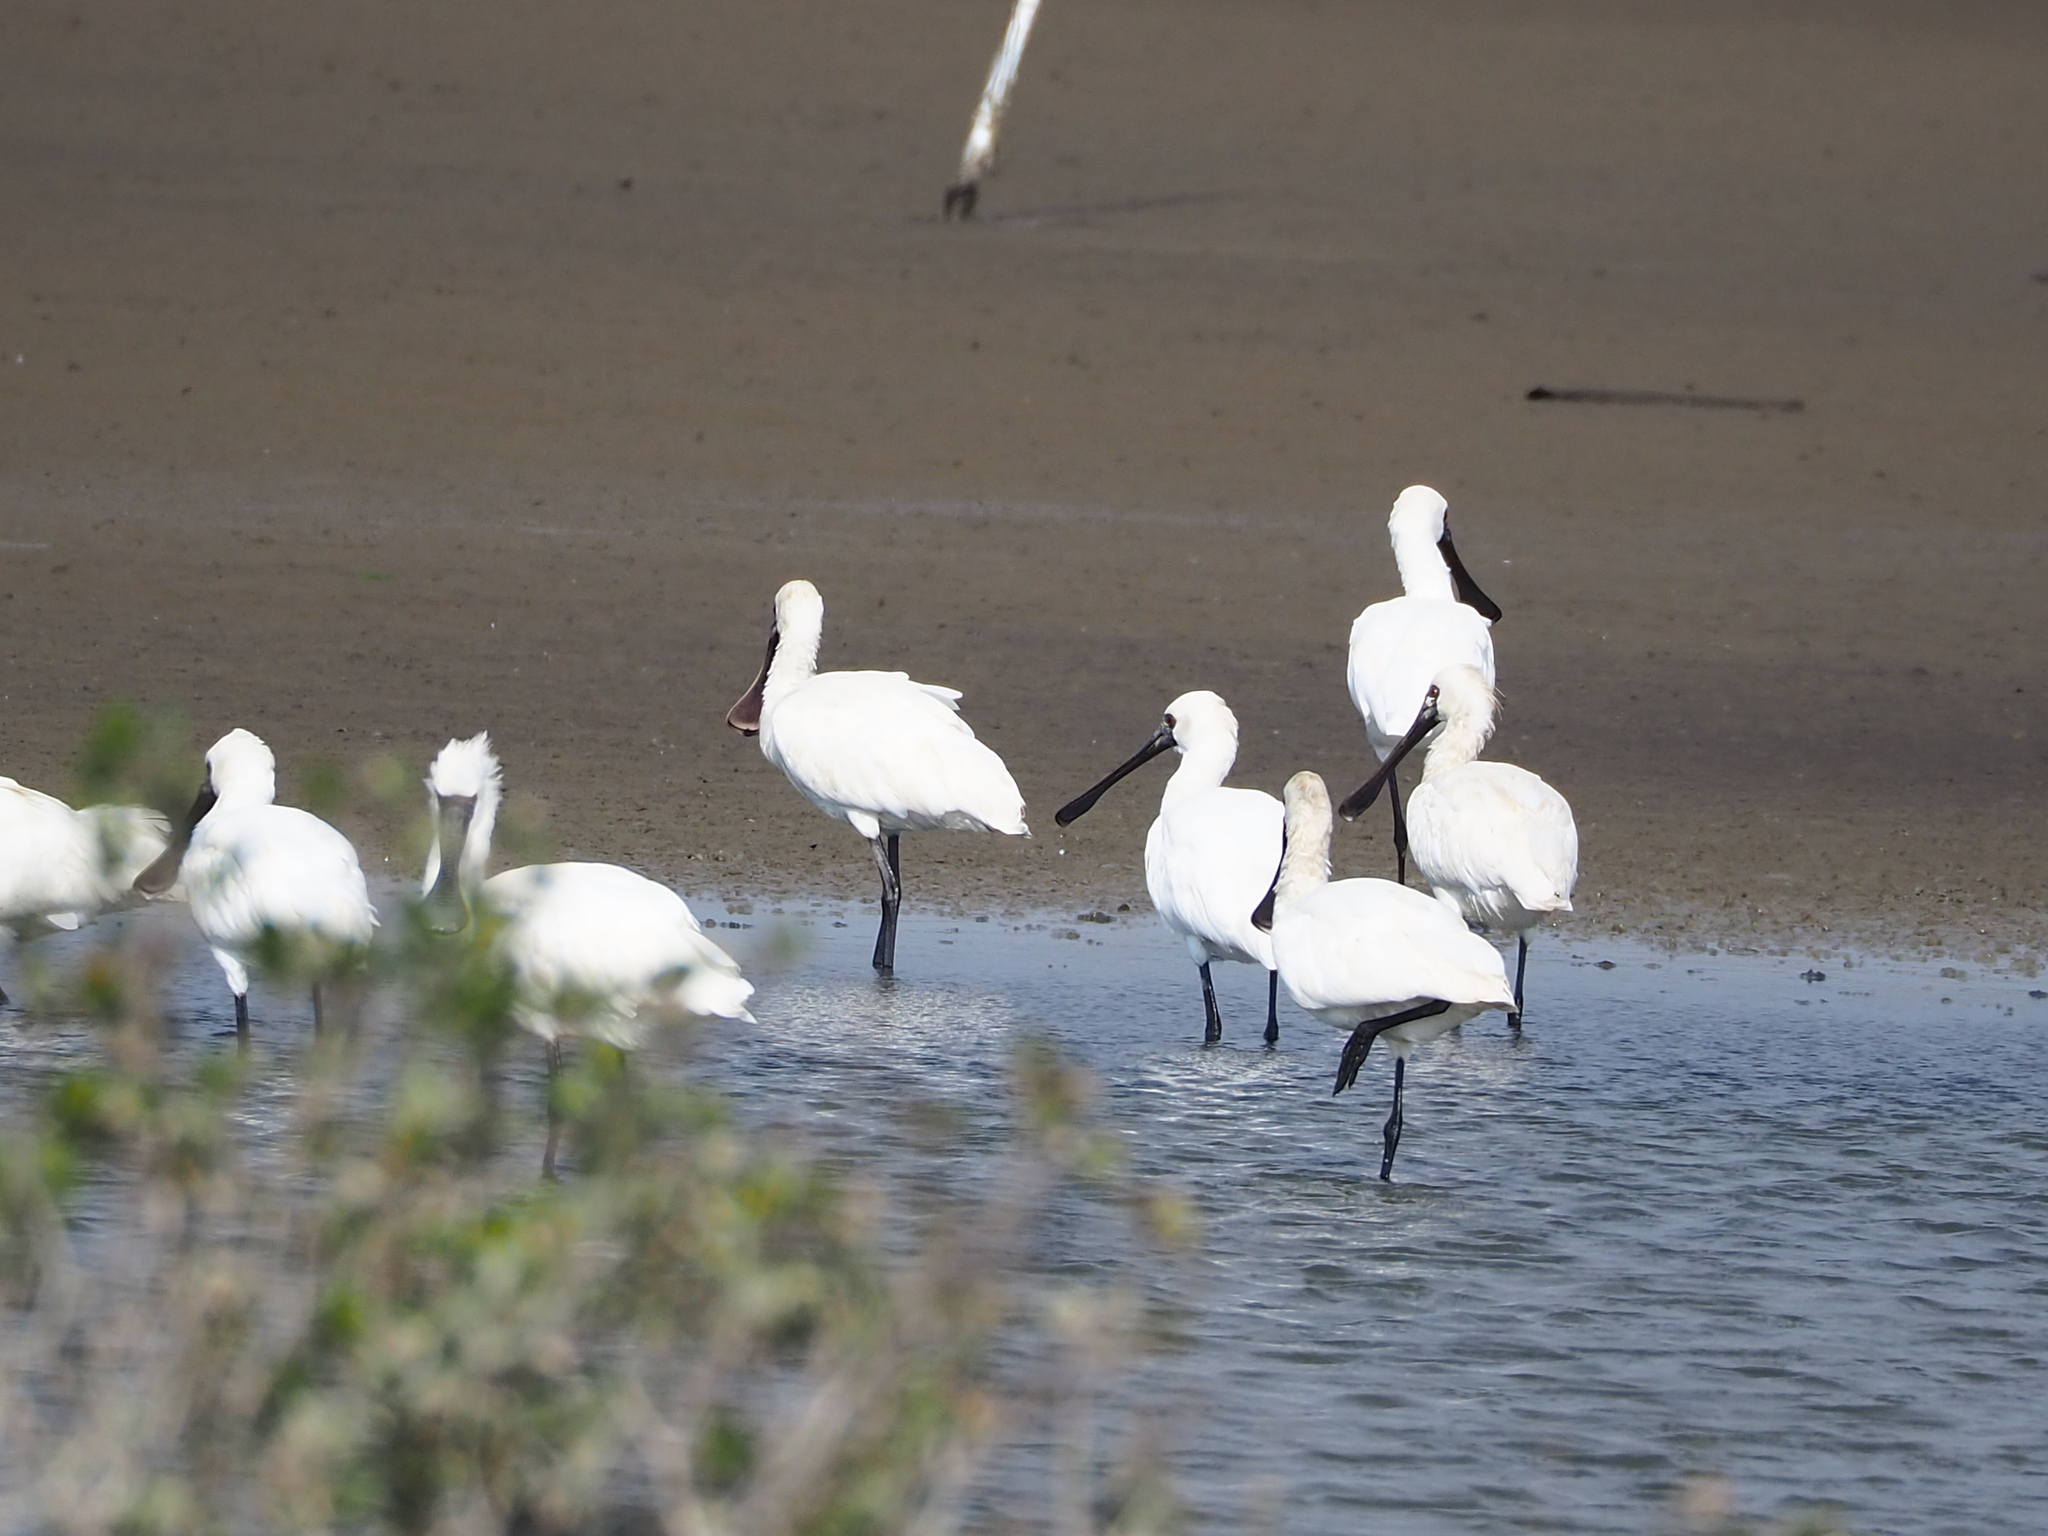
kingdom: Animalia
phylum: Chordata
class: Aves
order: Pelecaniformes
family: Threskiornithidae
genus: Platalea
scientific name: Platalea minor
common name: Black-faced spoonbill
